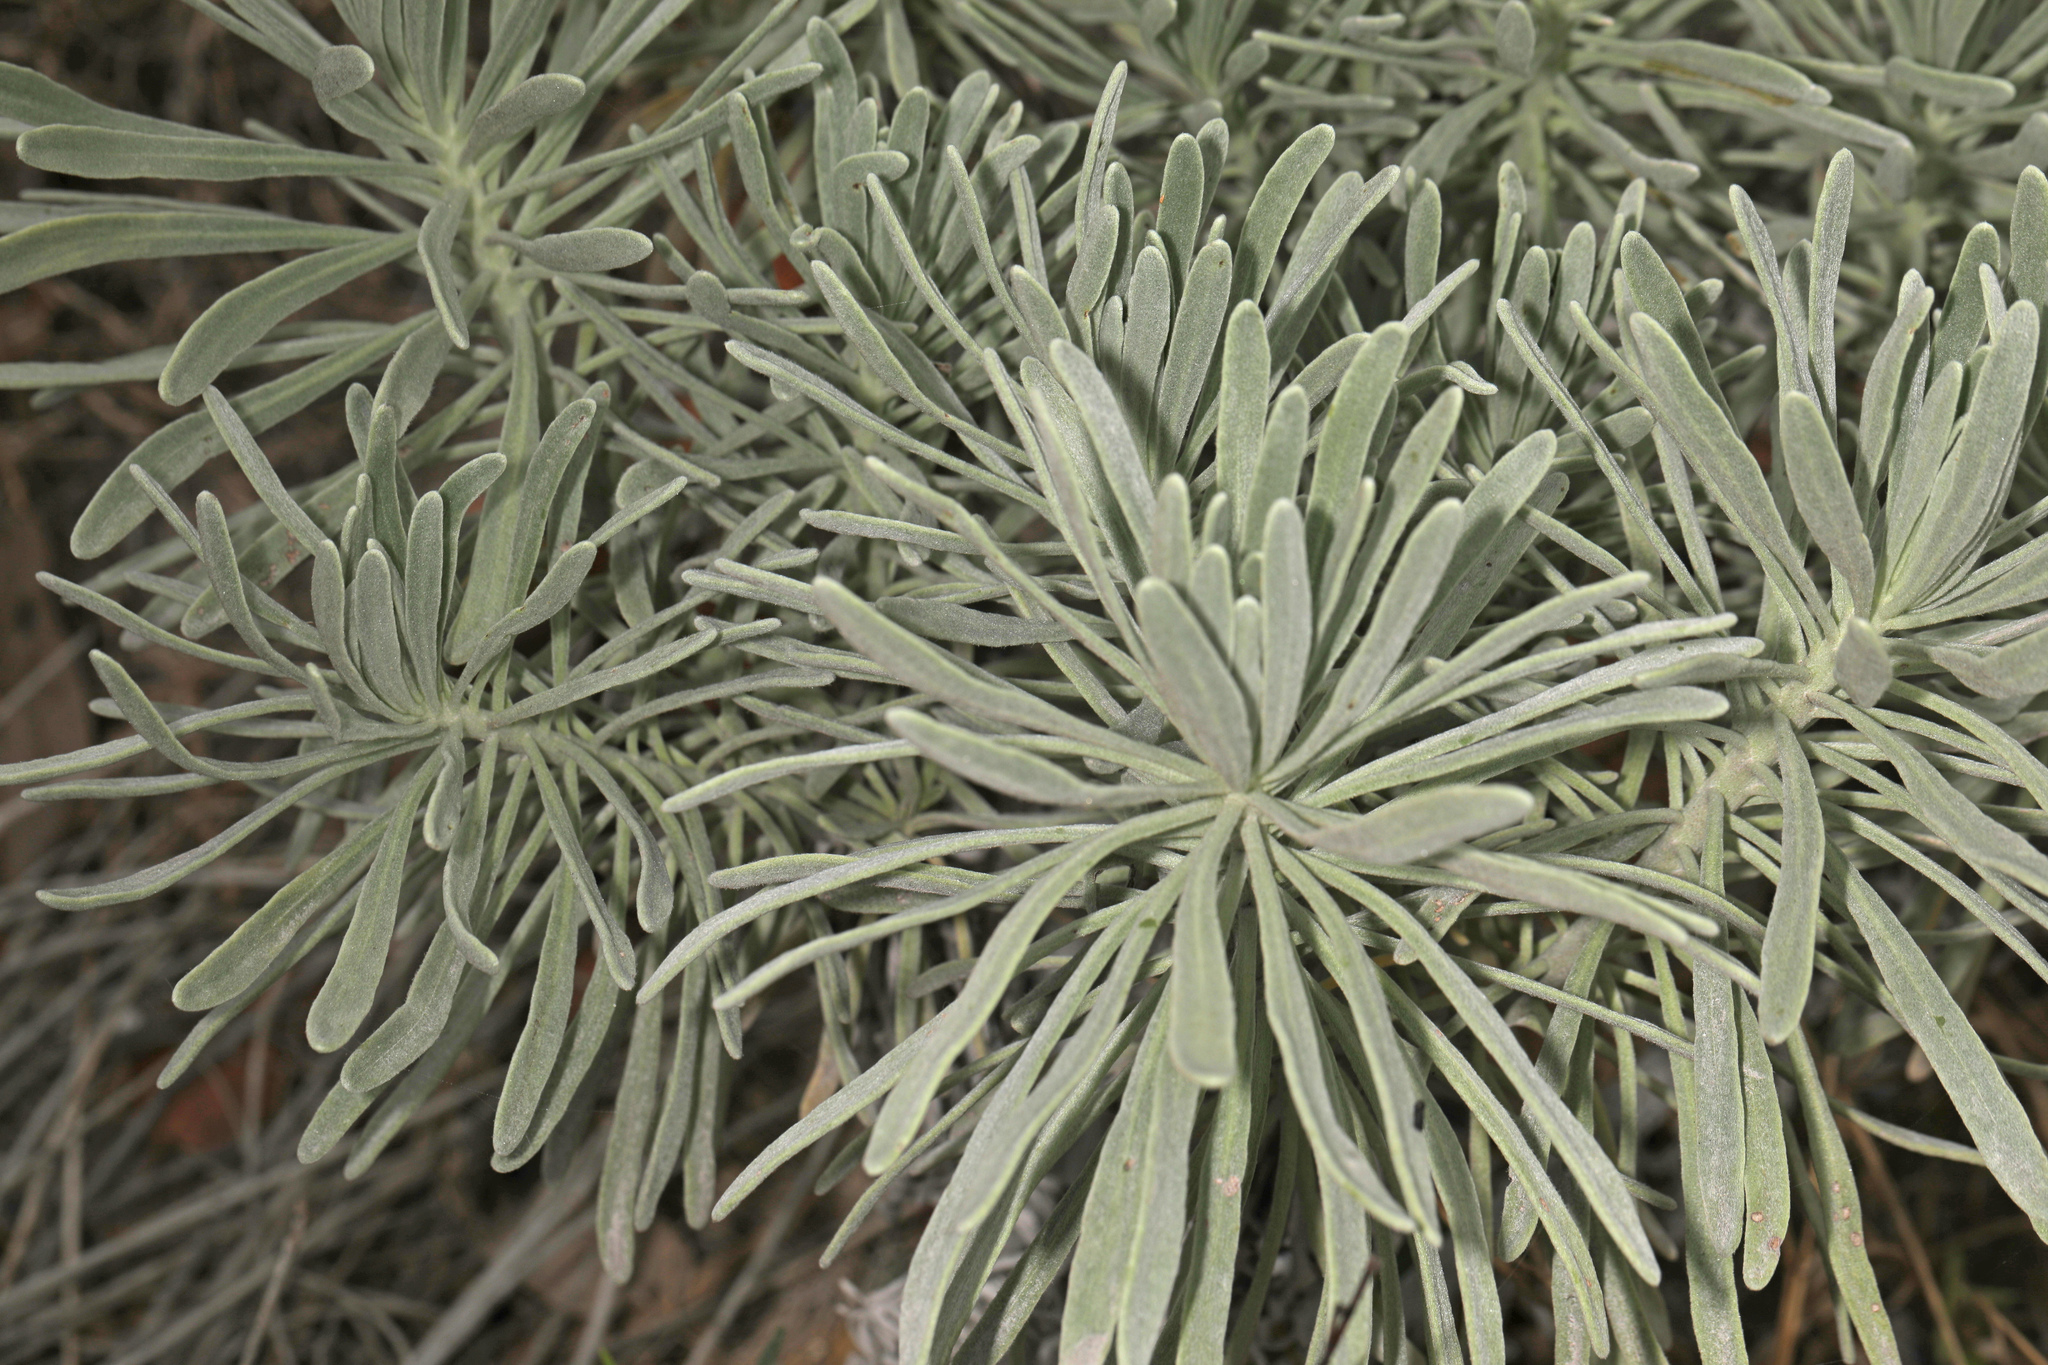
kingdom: Plantae
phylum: Tracheophyta
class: Magnoliopsida
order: Boraginales
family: Heliotropiaceae
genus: Tournefortia
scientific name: Tournefortia gnaphalodes
